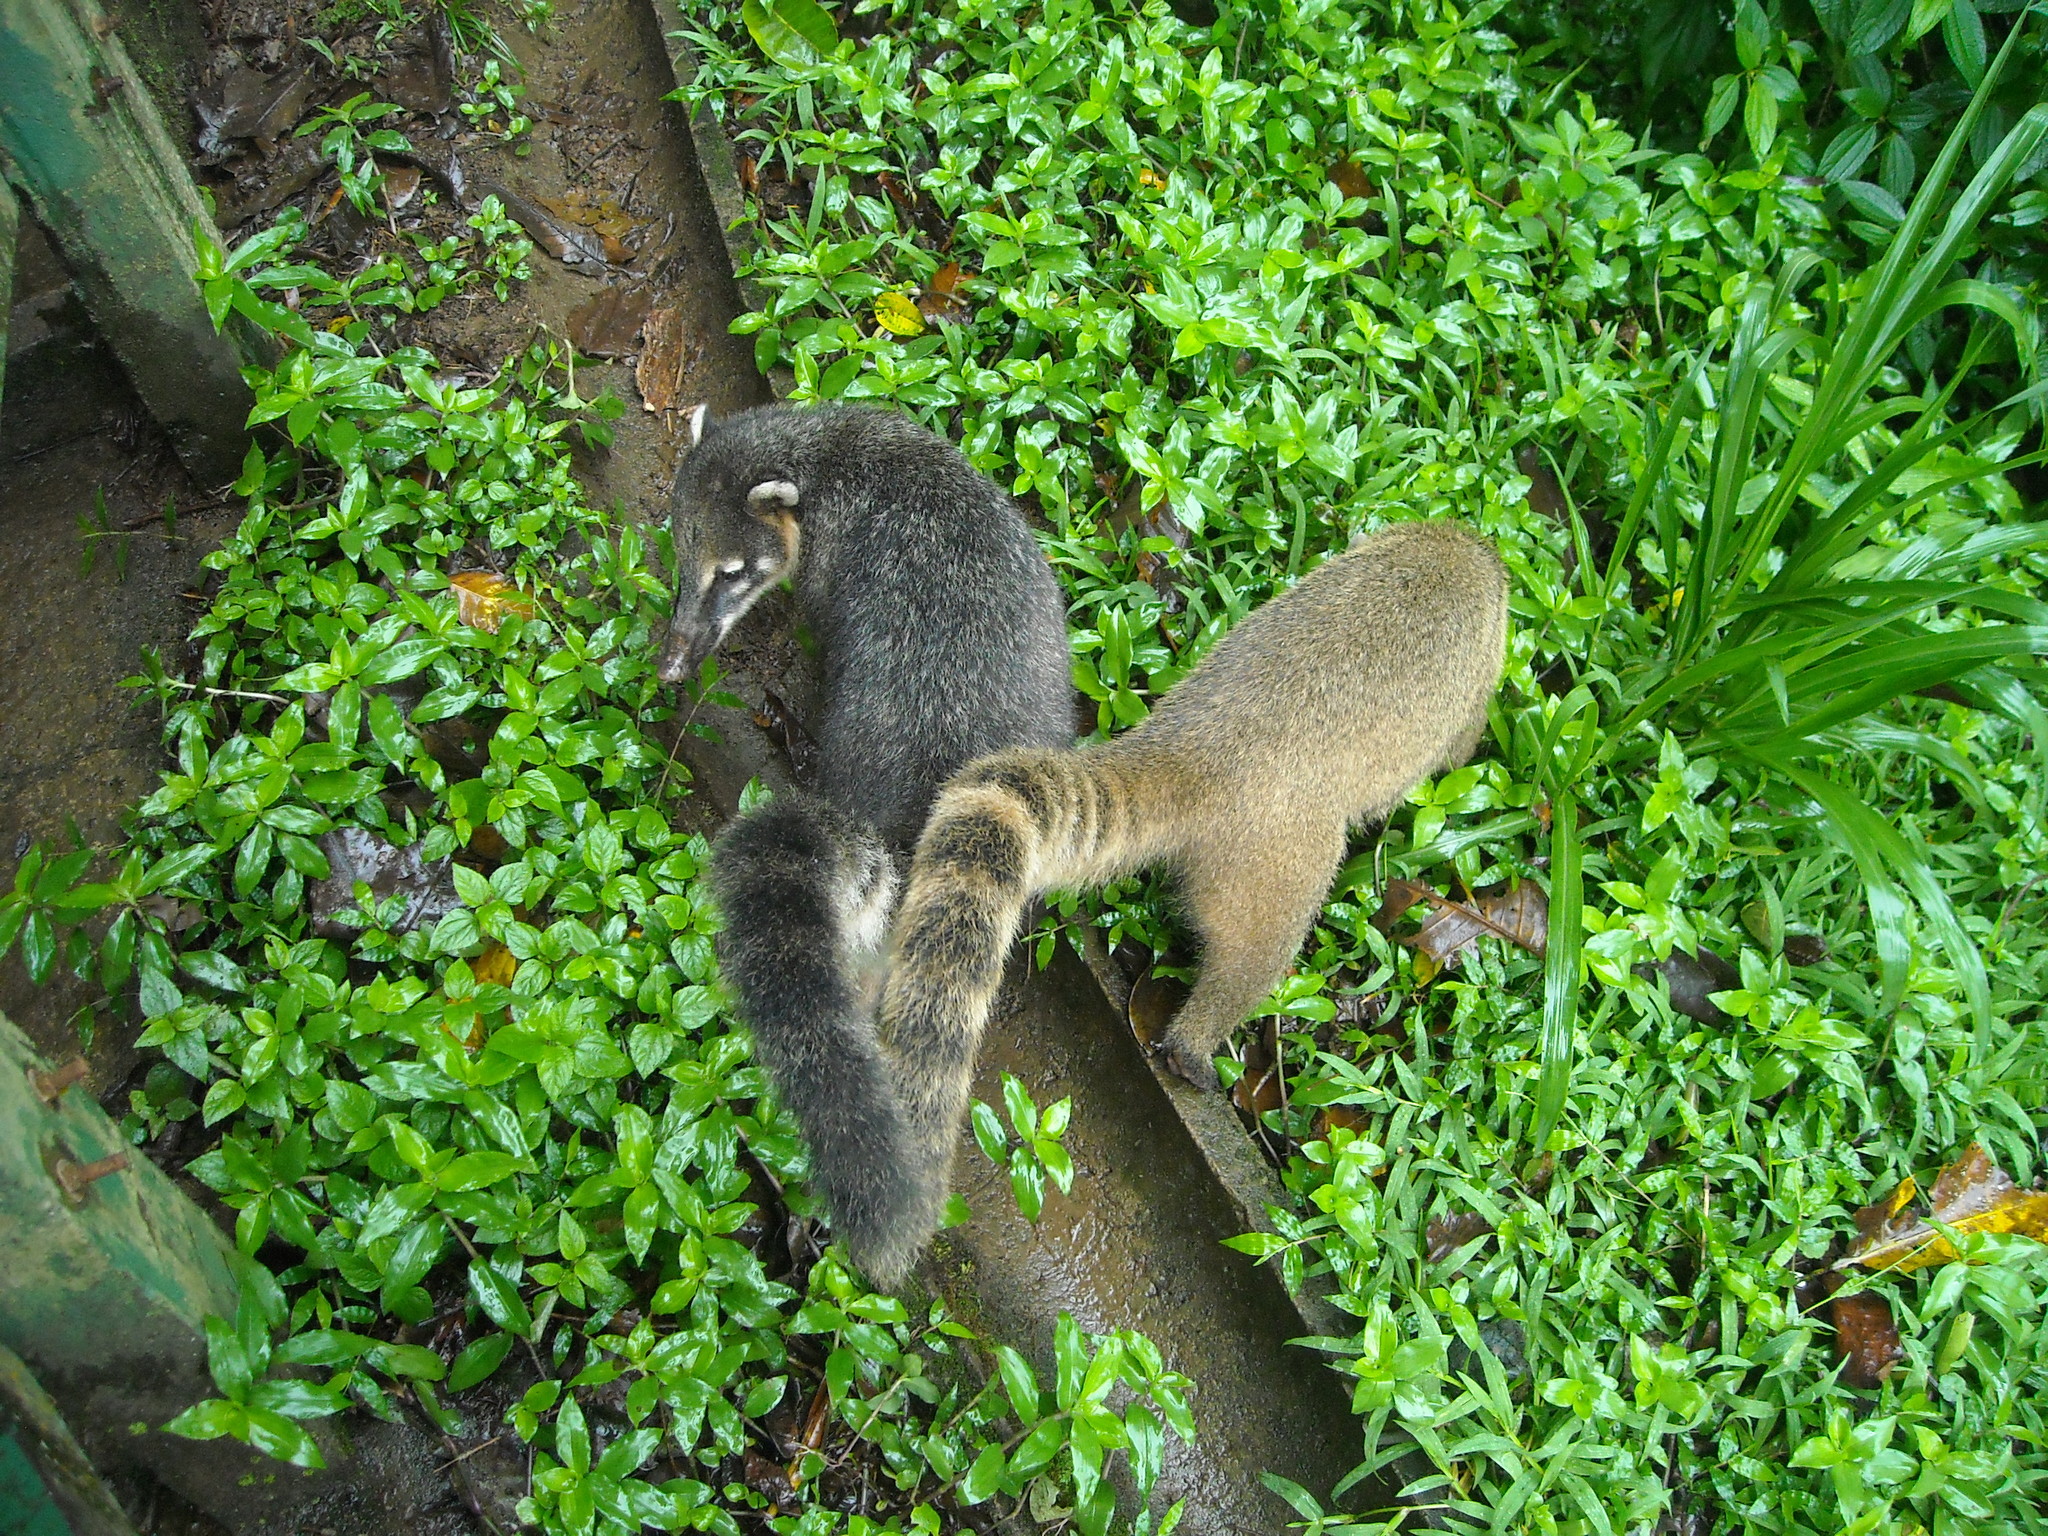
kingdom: Animalia
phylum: Chordata
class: Mammalia
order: Carnivora
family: Procyonidae
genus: Nasua
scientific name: Nasua nasua
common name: South american coati
